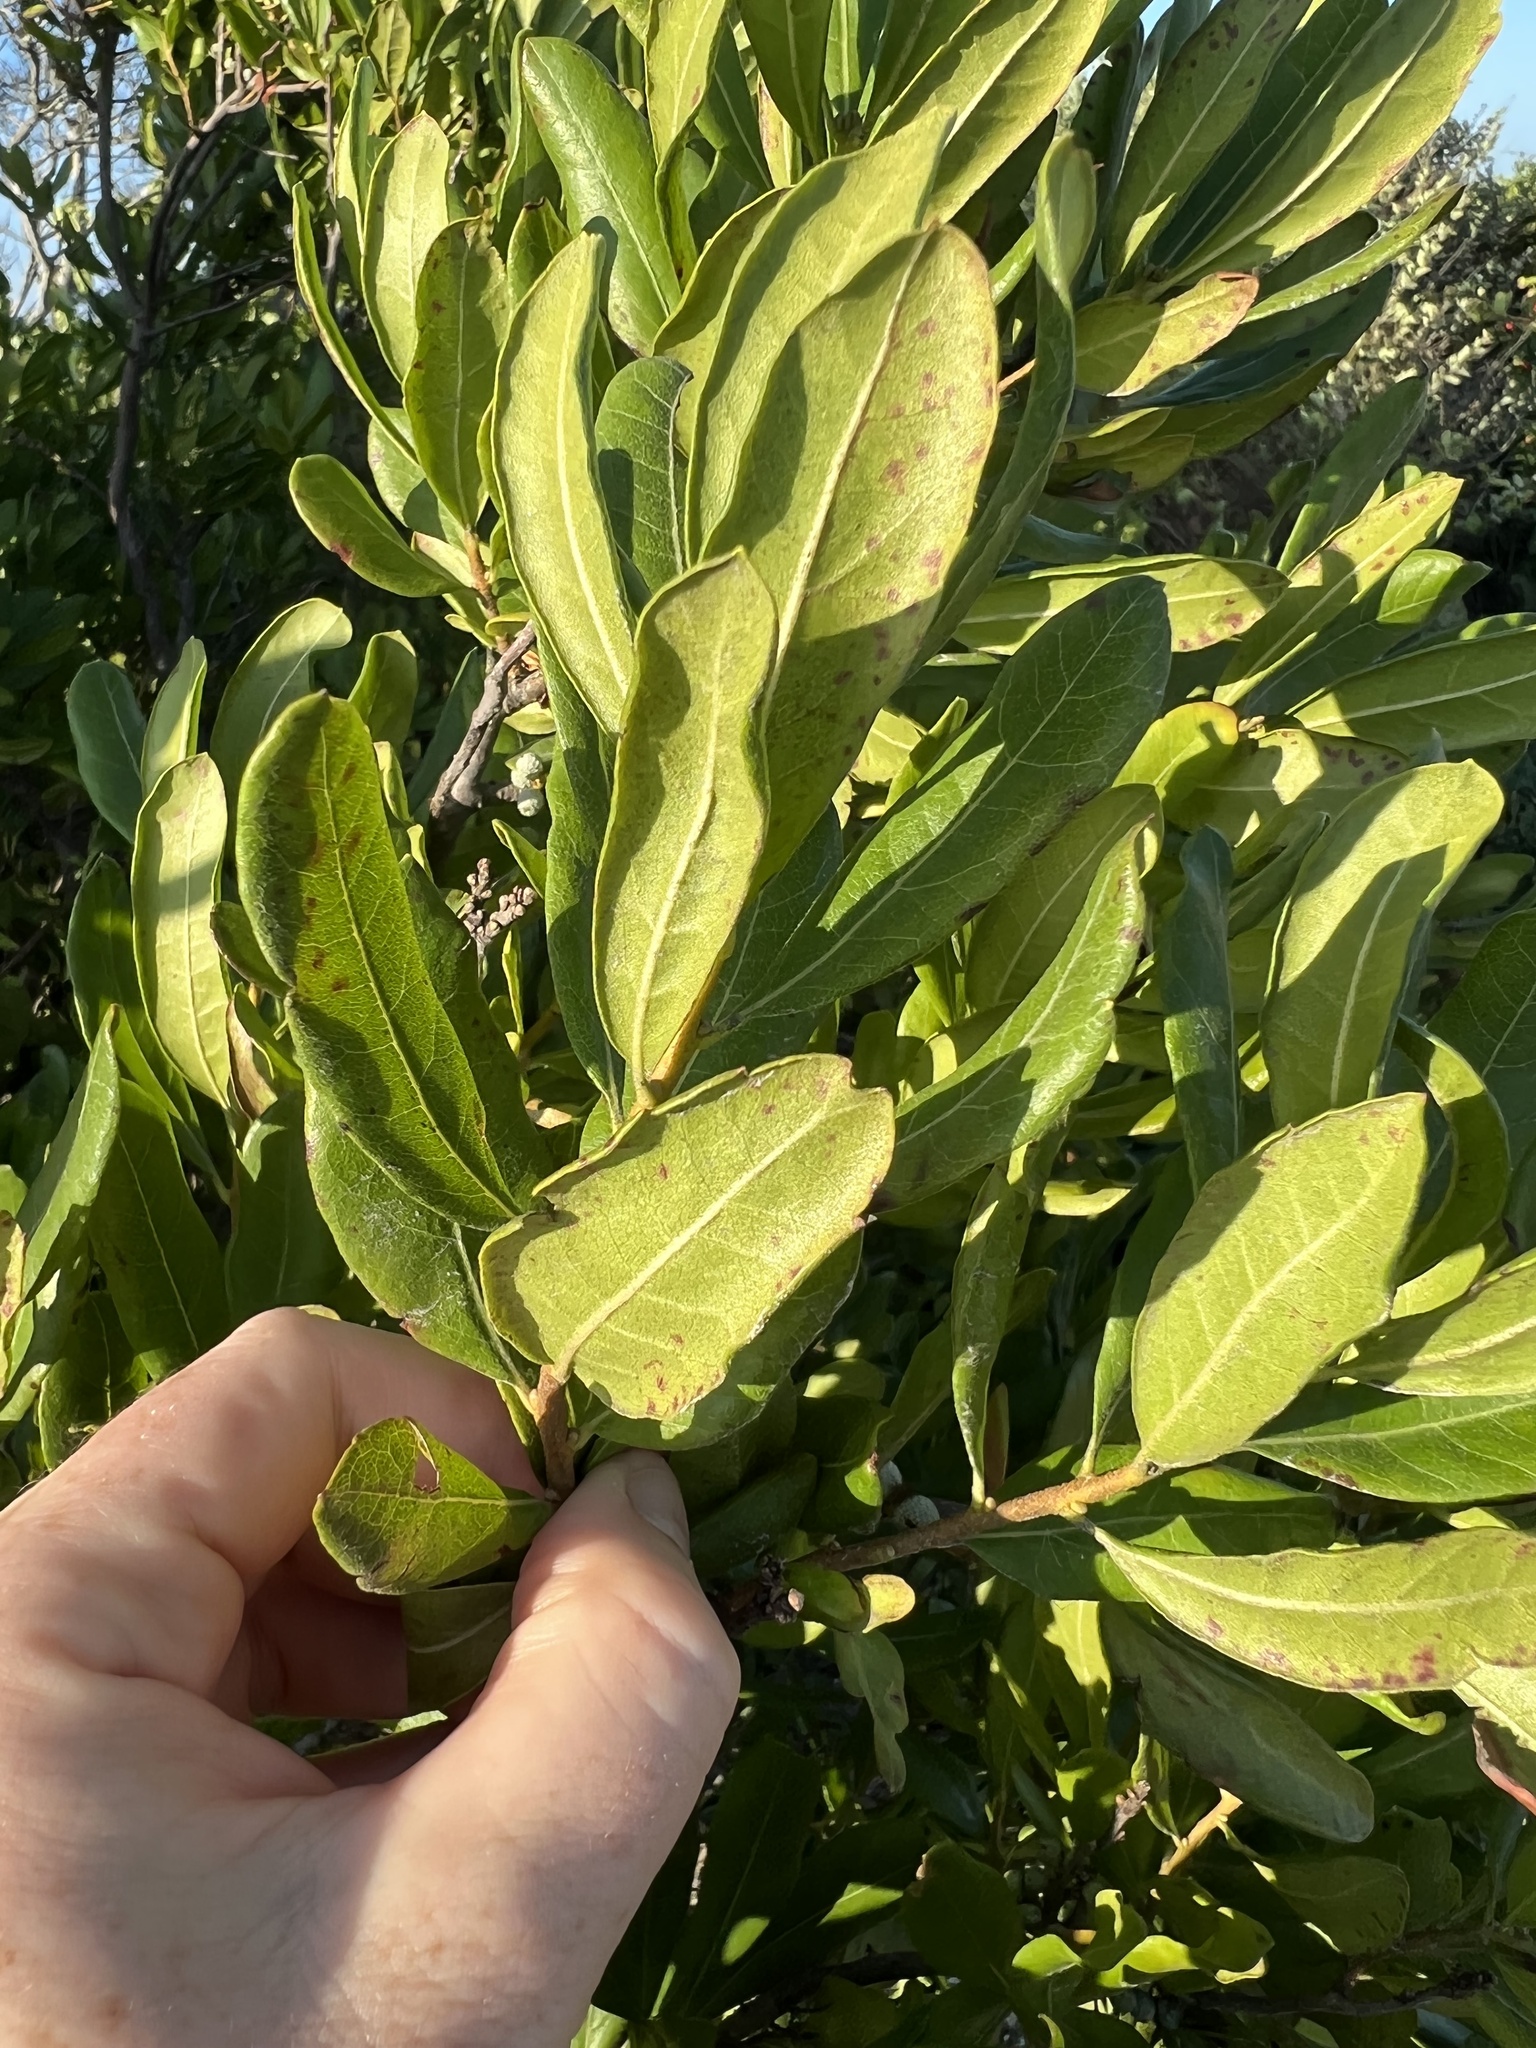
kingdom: Plantae
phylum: Tracheophyta
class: Magnoliopsida
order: Fagales
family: Myricaceae
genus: Morella
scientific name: Morella pensylvanica
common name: Northern bayberry
